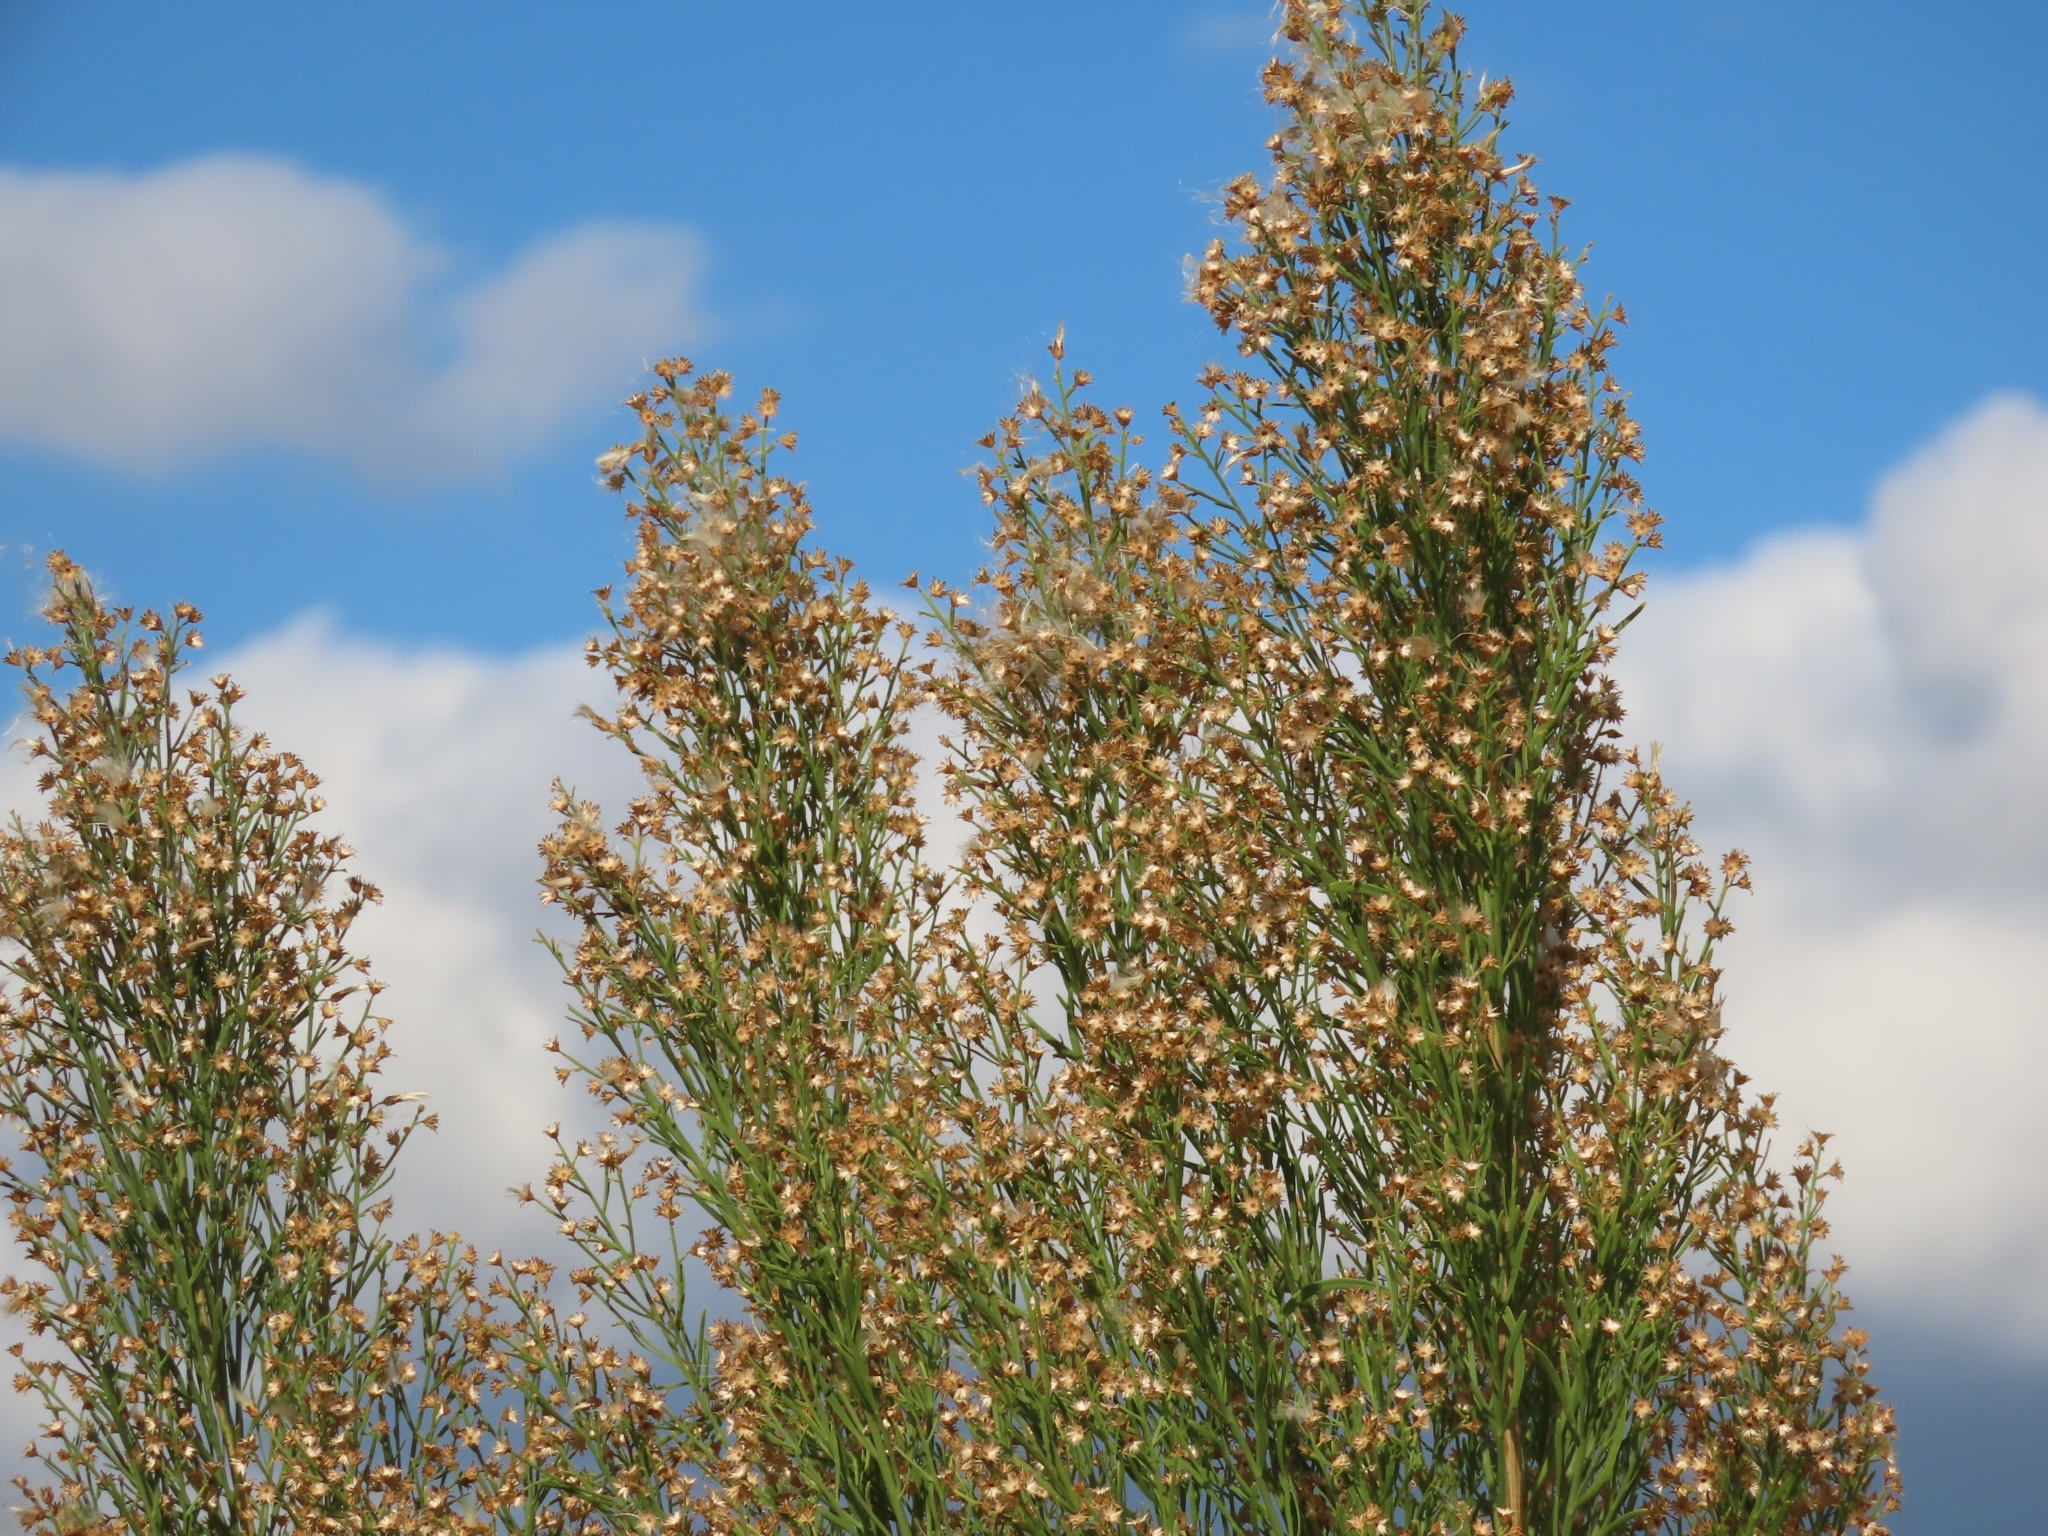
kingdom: Plantae
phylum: Tracheophyta
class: Magnoliopsida
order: Asterales
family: Asteraceae
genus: Baccharis
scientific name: Baccharis neglecta
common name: Roosevelt-weed
